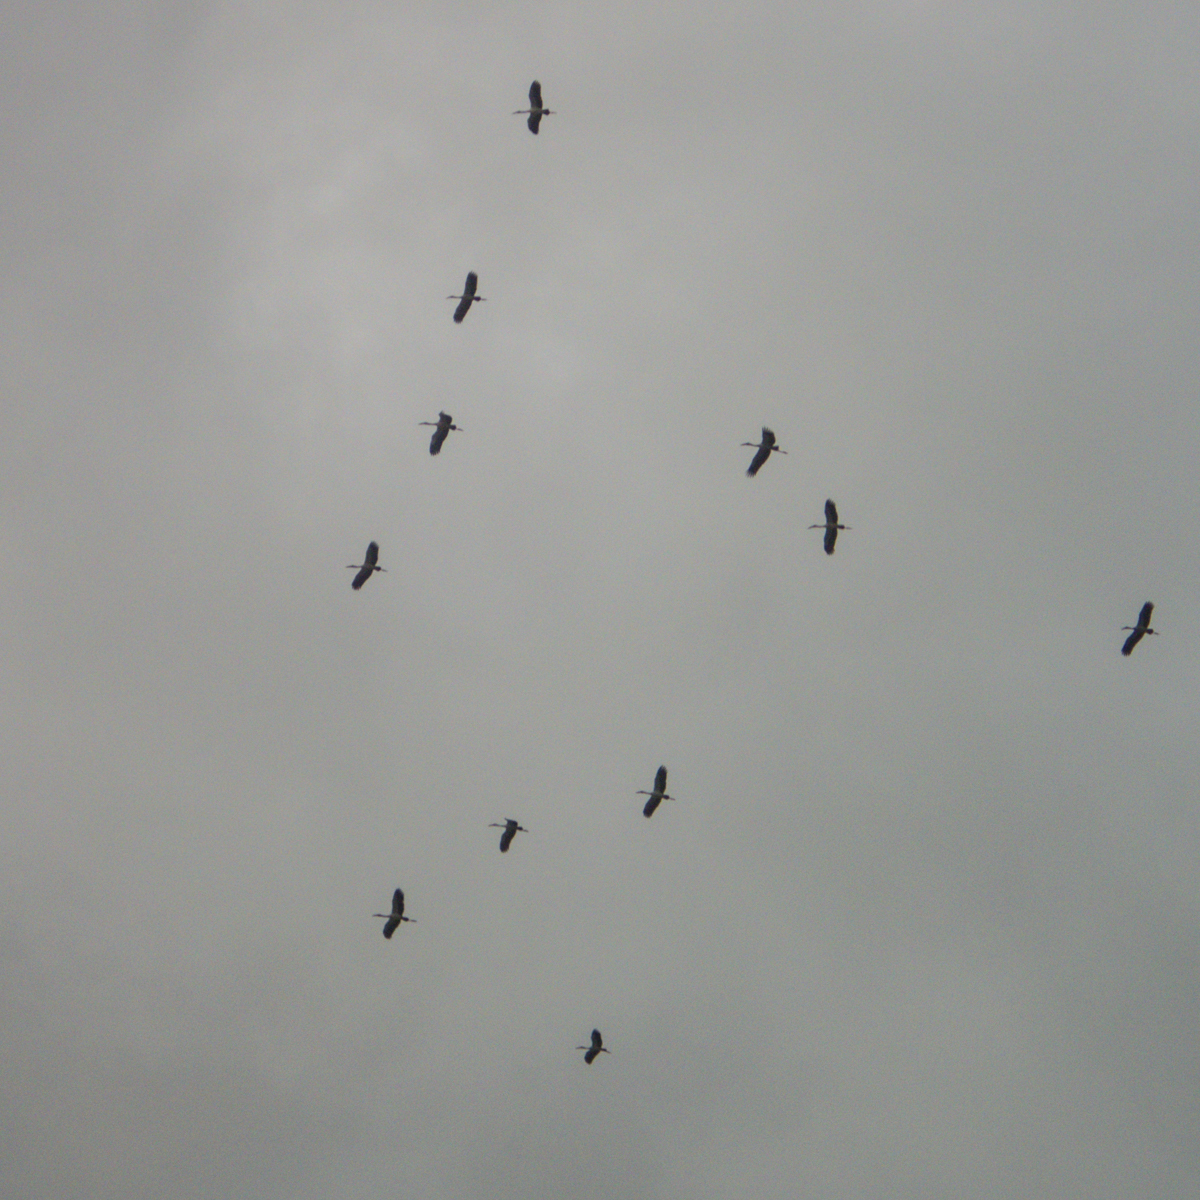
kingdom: Animalia
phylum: Chordata
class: Aves
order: Ciconiiformes
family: Ciconiidae
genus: Anastomus
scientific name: Anastomus oscitans
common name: Asian openbill
